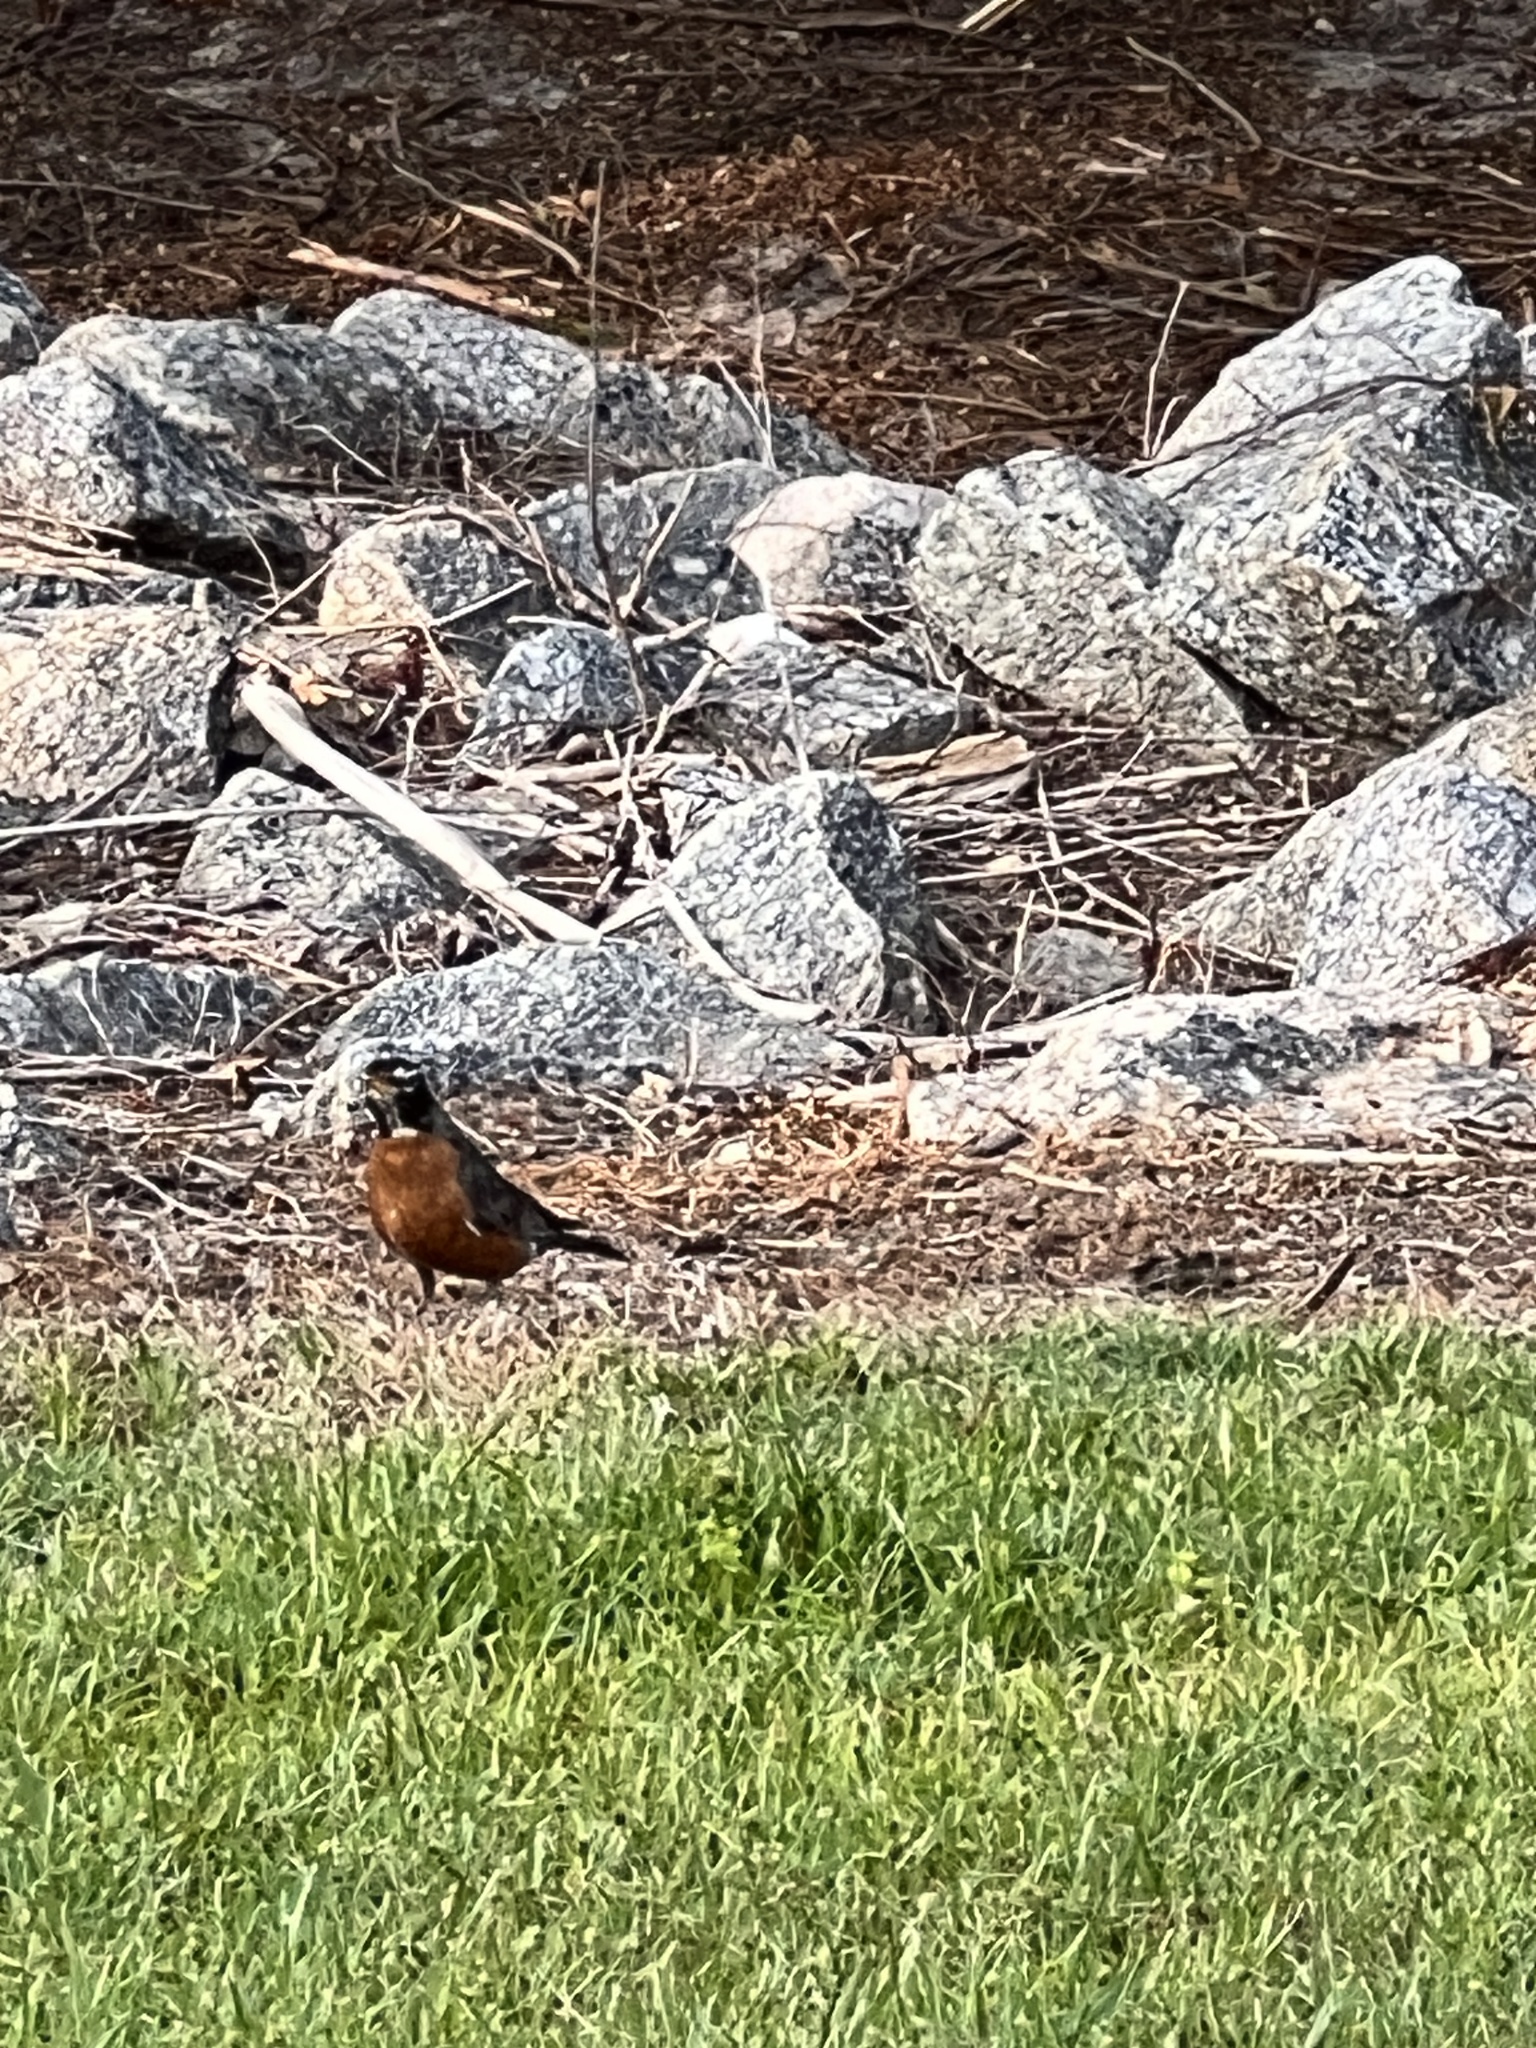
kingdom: Animalia
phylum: Chordata
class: Aves
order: Passeriformes
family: Turdidae
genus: Turdus
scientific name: Turdus migratorius
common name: American robin
